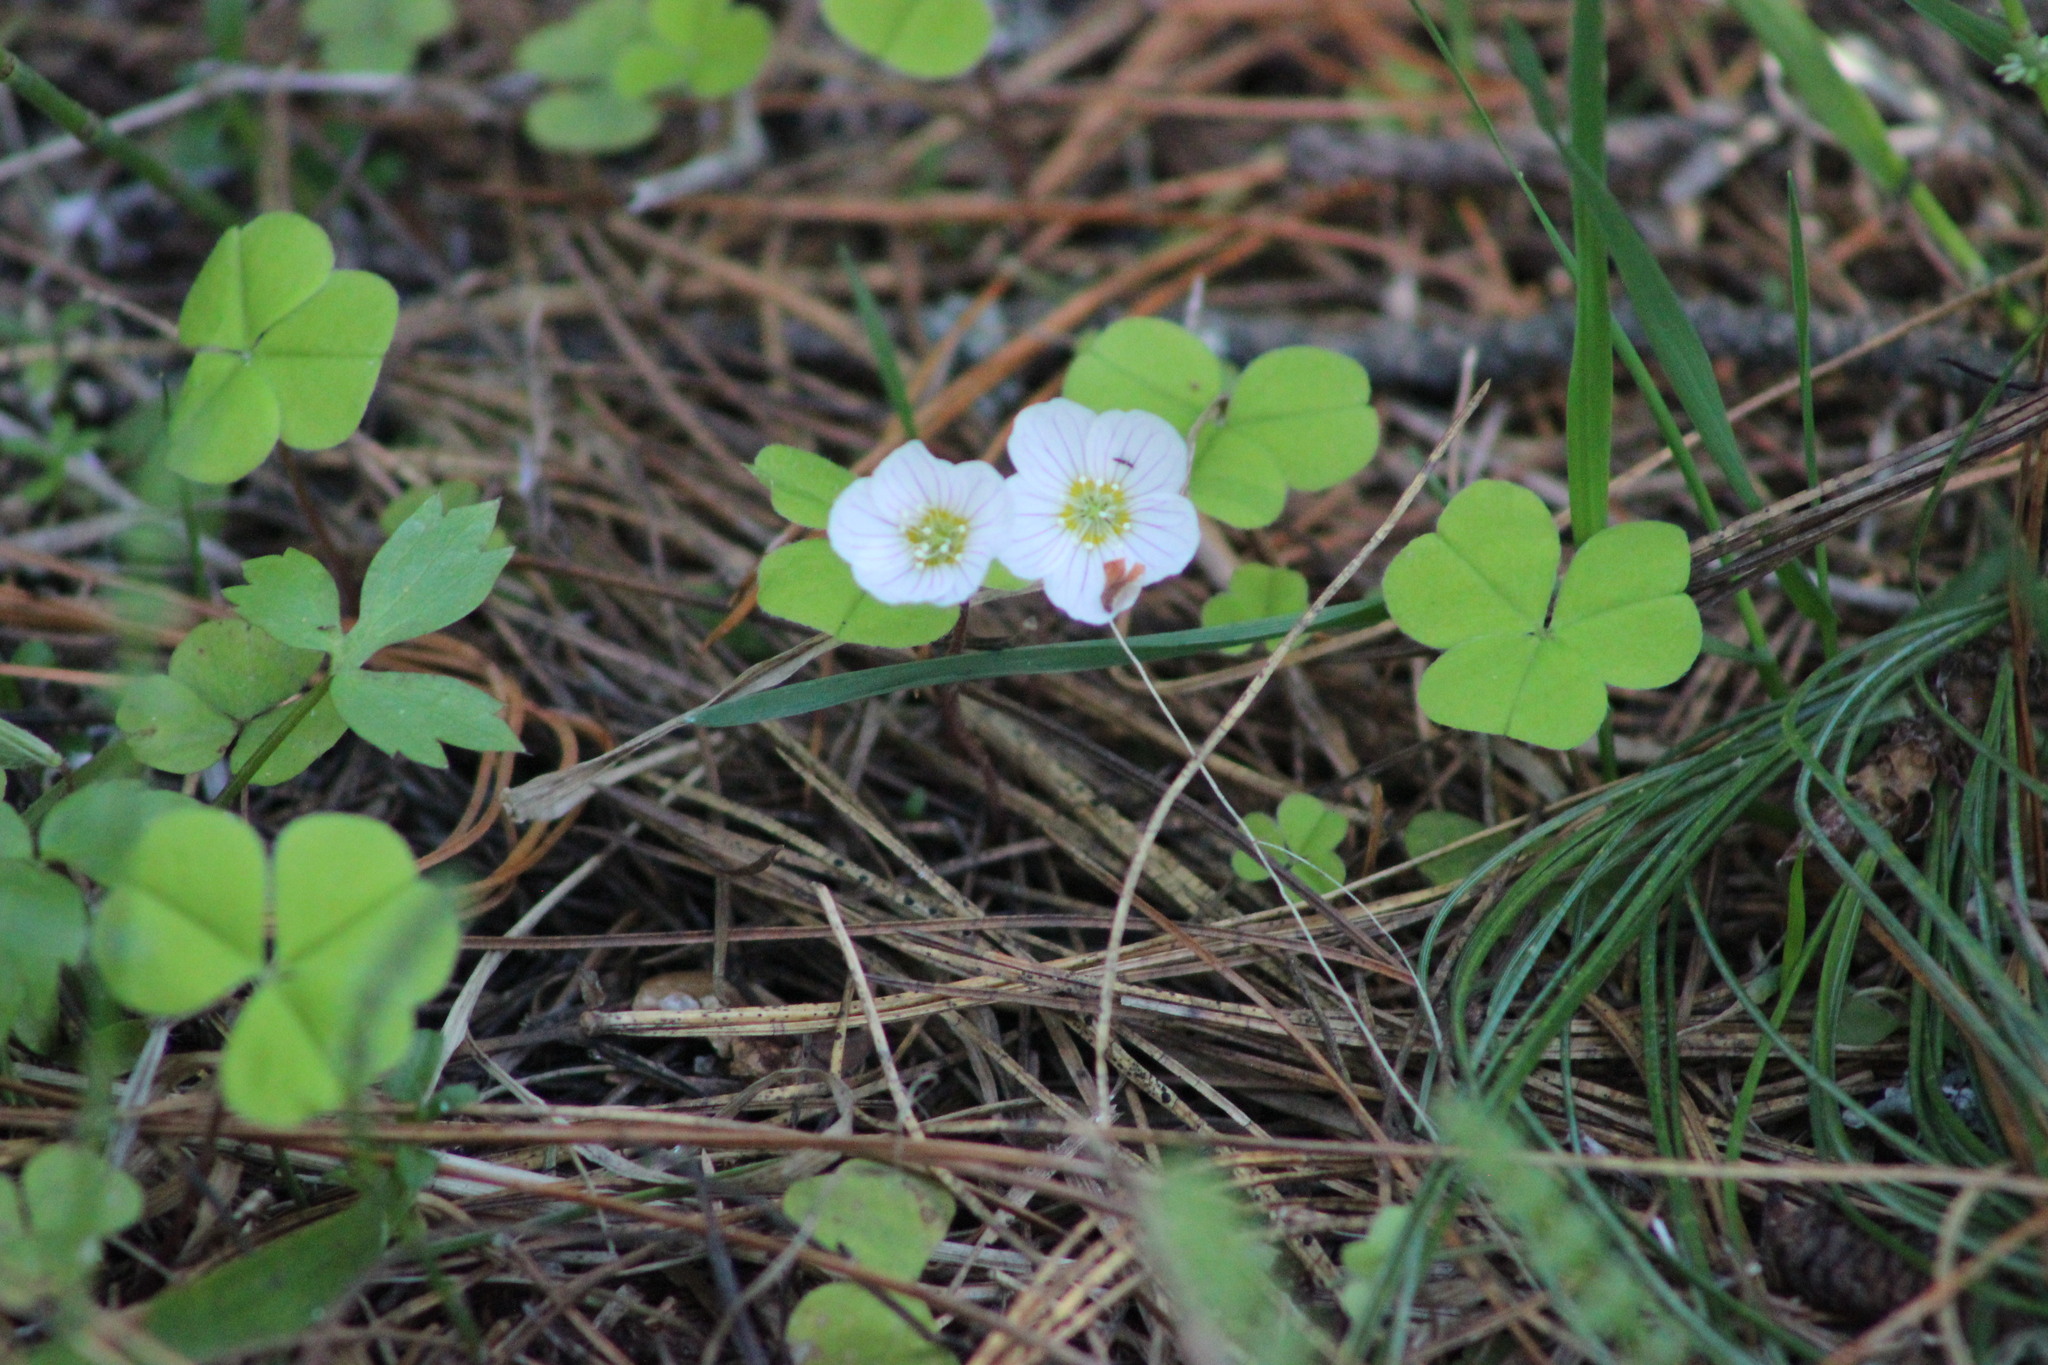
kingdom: Plantae
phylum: Tracheophyta
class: Magnoliopsida
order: Oxalidales
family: Oxalidaceae
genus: Oxalis
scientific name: Oxalis acetosella
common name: Wood-sorrel
